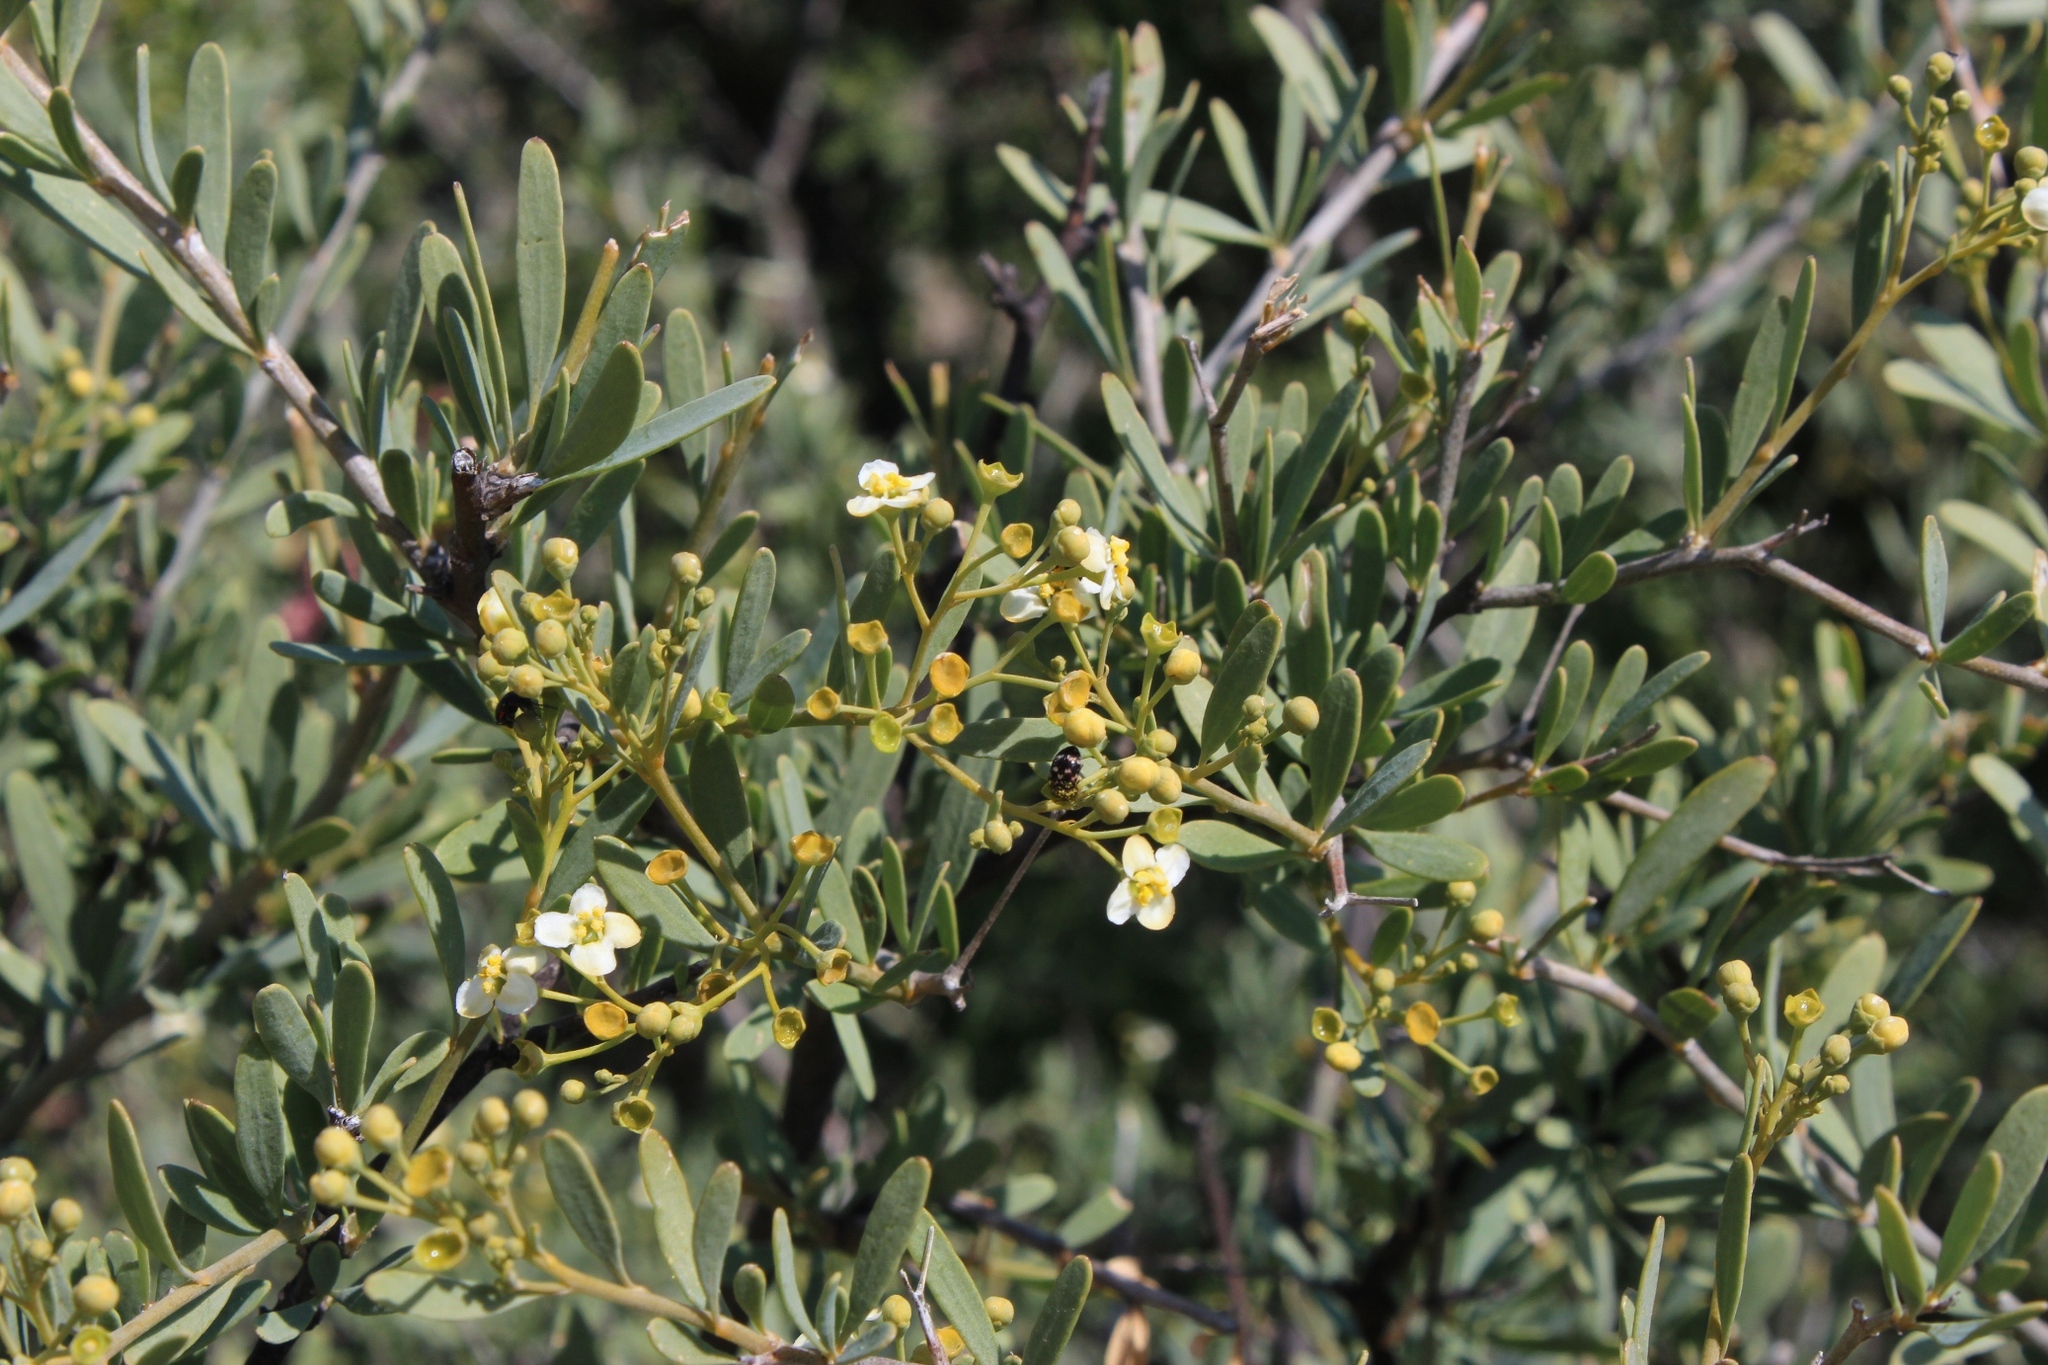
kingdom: Plantae
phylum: Tracheophyta
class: Magnoliopsida
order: Solanales
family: Montiniaceae
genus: Montinia
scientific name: Montinia caryophyllacea
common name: Wild clove-bush
